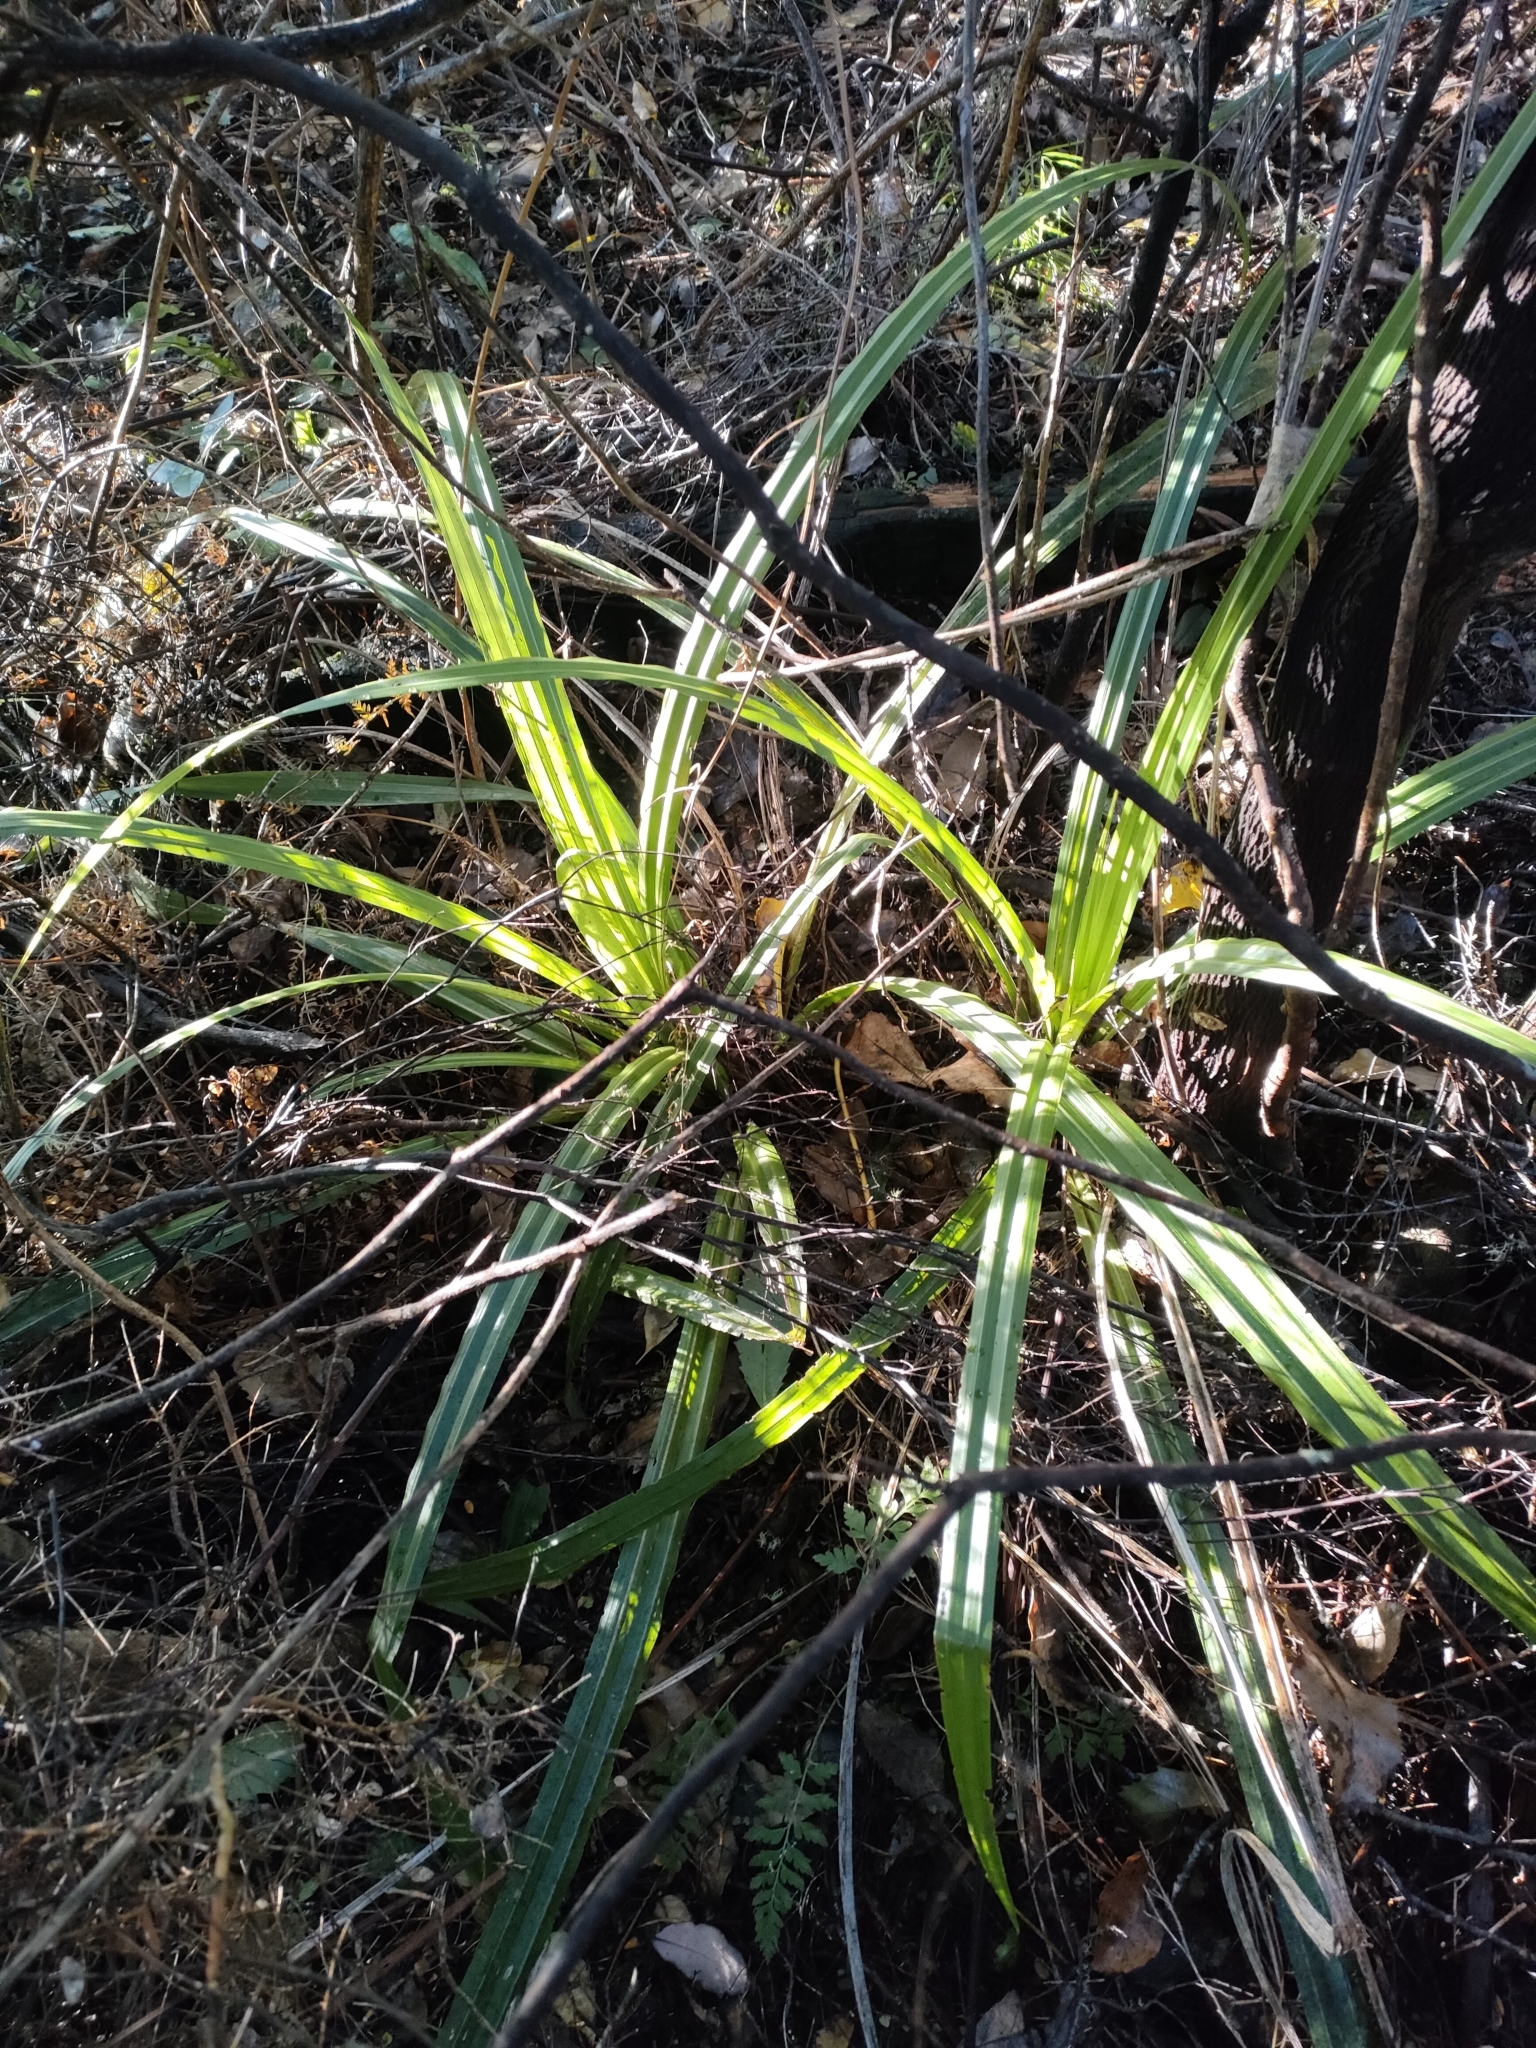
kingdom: Plantae
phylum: Tracheophyta
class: Liliopsida
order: Asparagales
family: Asteliaceae
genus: Astelia
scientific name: Astelia fragrans
